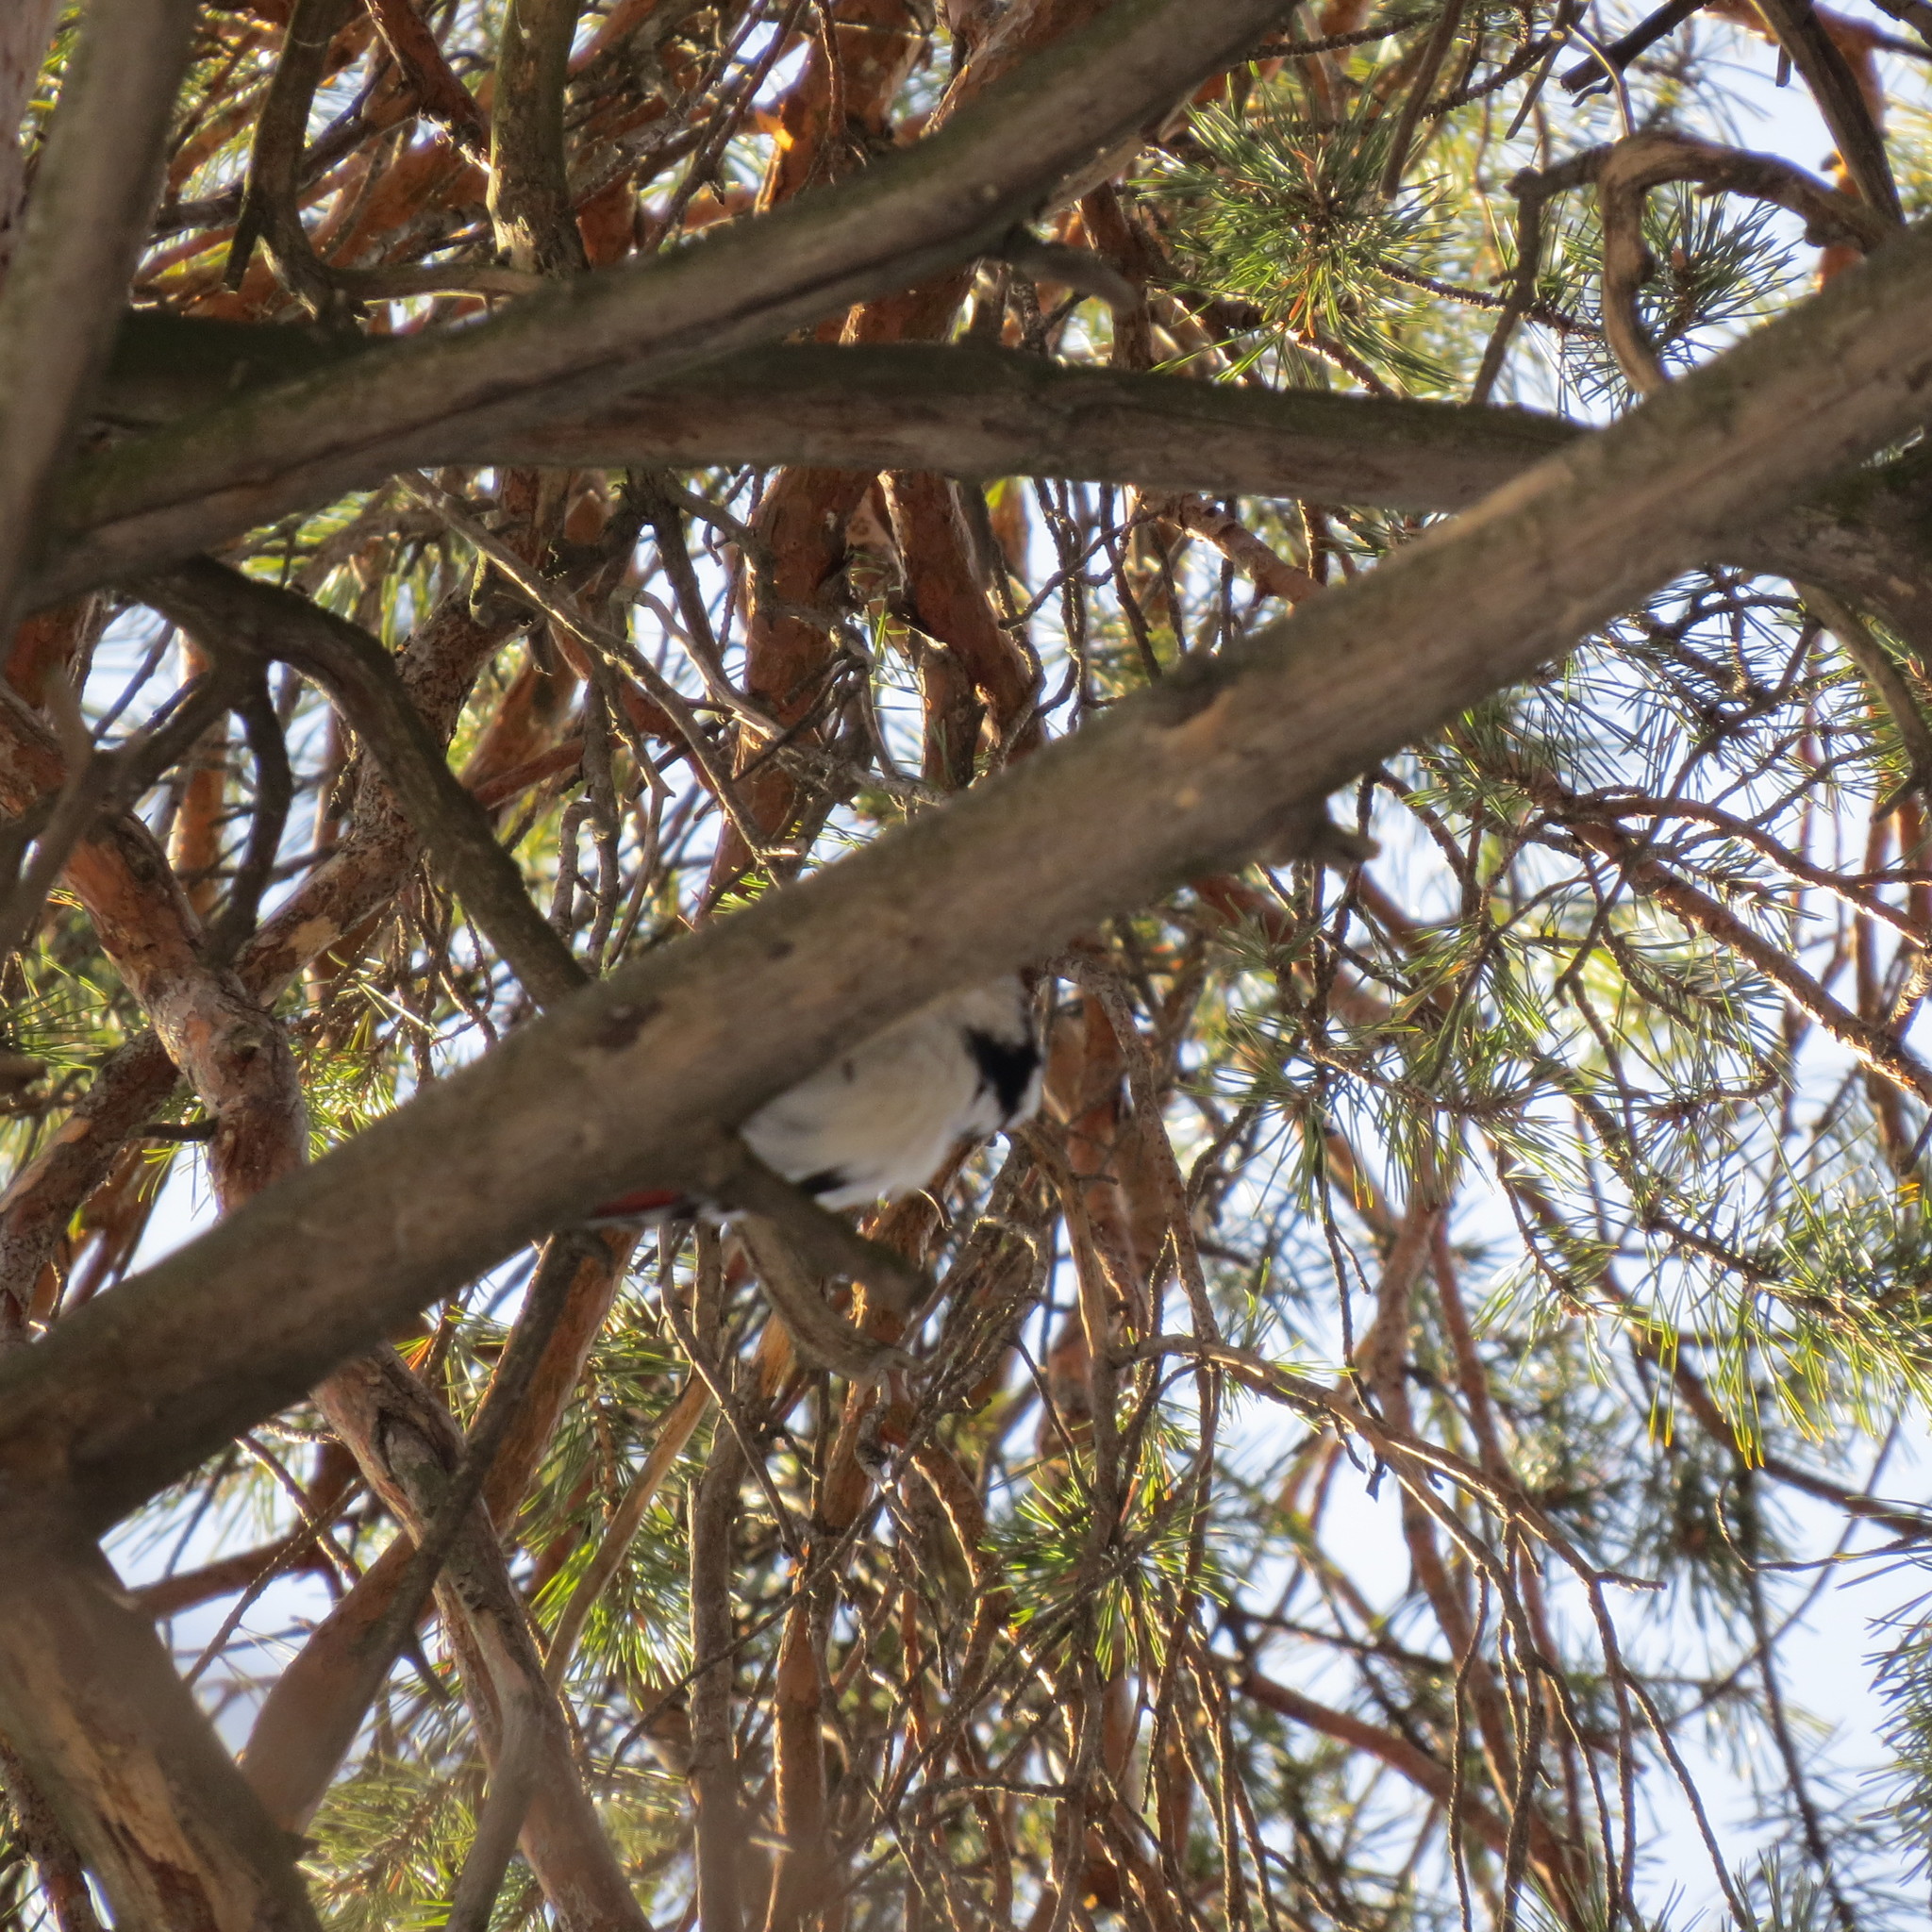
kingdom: Animalia
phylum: Chordata
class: Aves
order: Piciformes
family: Picidae
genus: Dendrocopos
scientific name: Dendrocopos major
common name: Great spotted woodpecker
